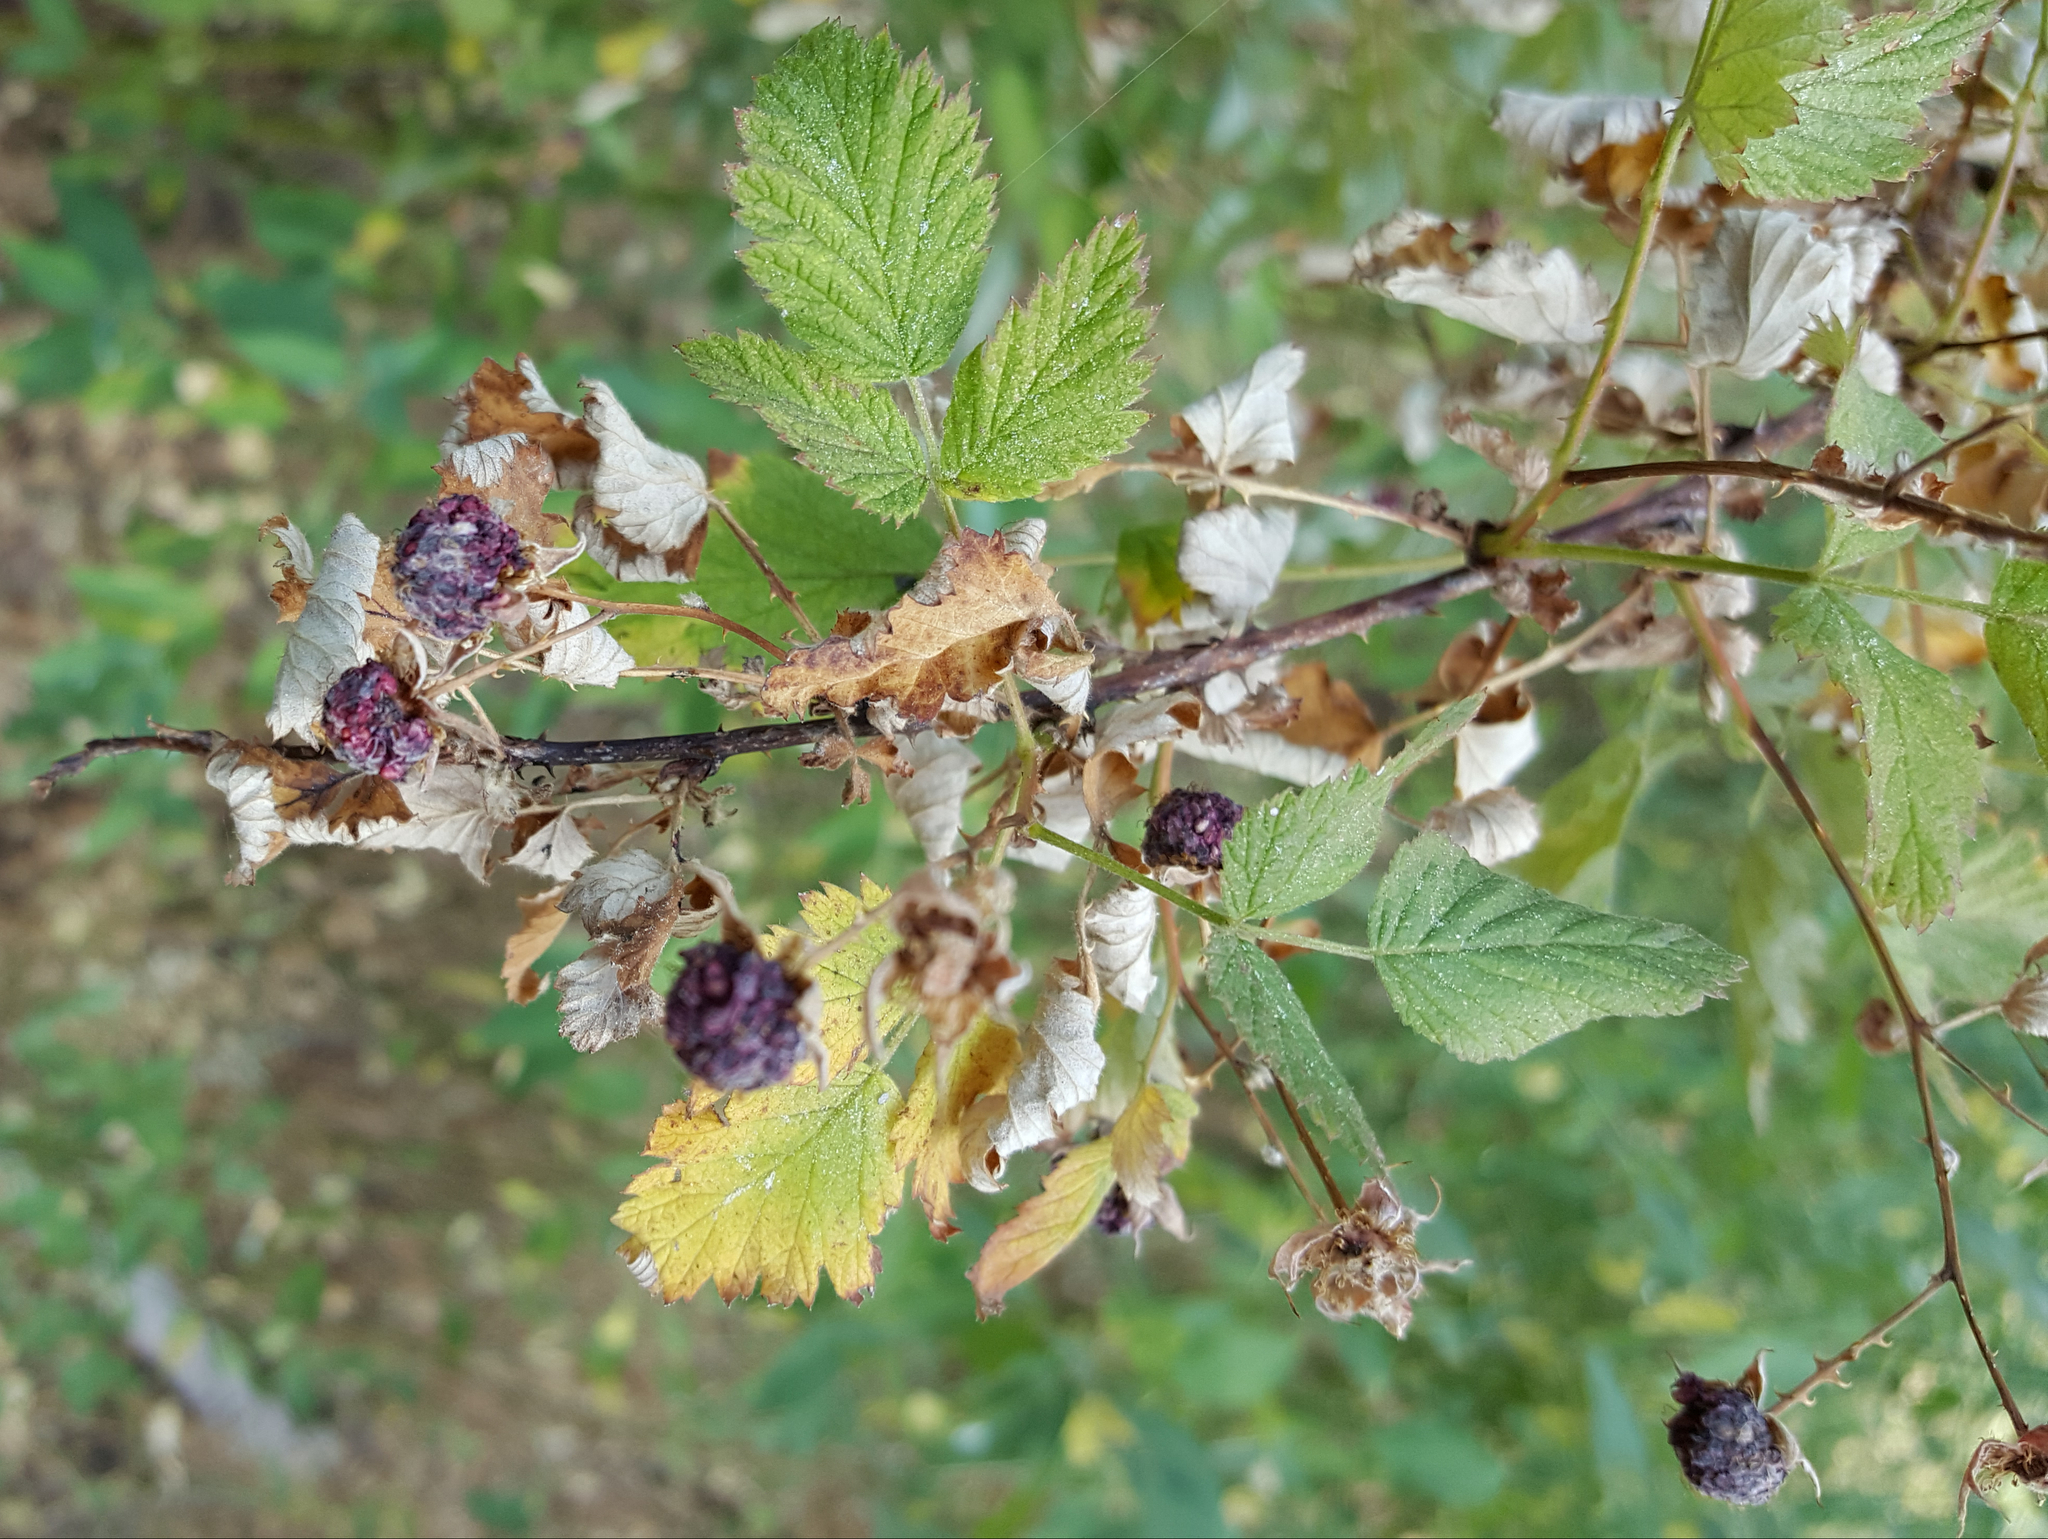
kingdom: Plantae
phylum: Tracheophyta
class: Magnoliopsida
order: Rosales
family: Rosaceae
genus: Rubus
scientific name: Rubus leucodermis
